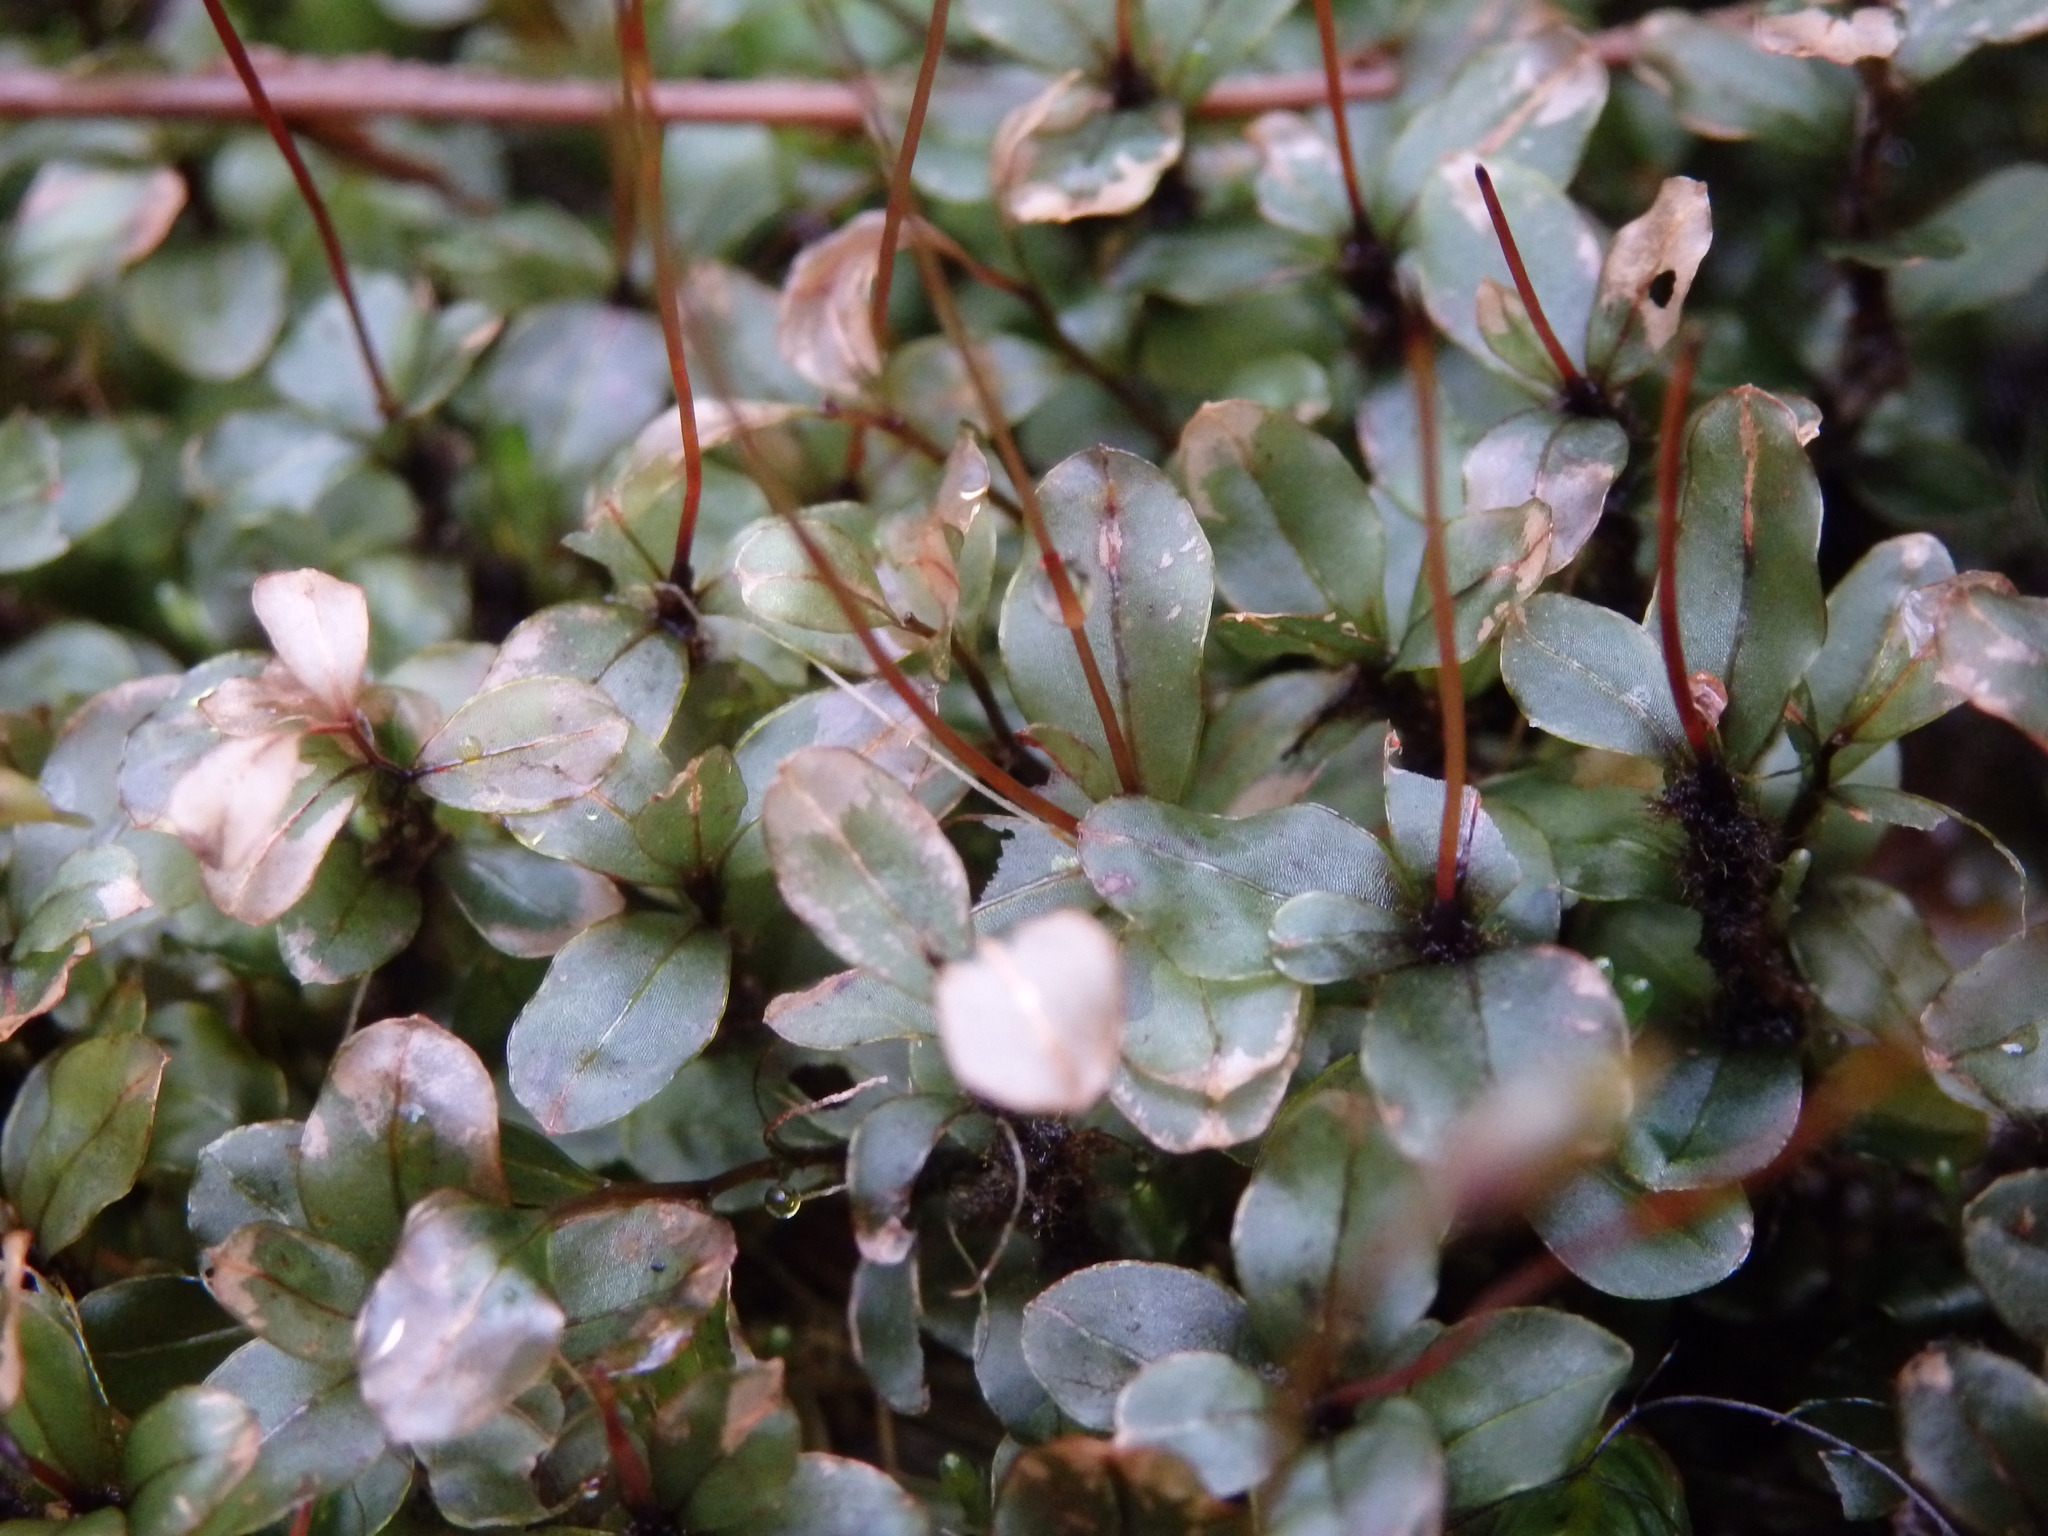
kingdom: Plantae
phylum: Bryophyta
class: Bryopsida
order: Bryales
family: Mniaceae
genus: Rhizomnium
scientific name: Rhizomnium punctatum
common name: Dotted leafy moss
